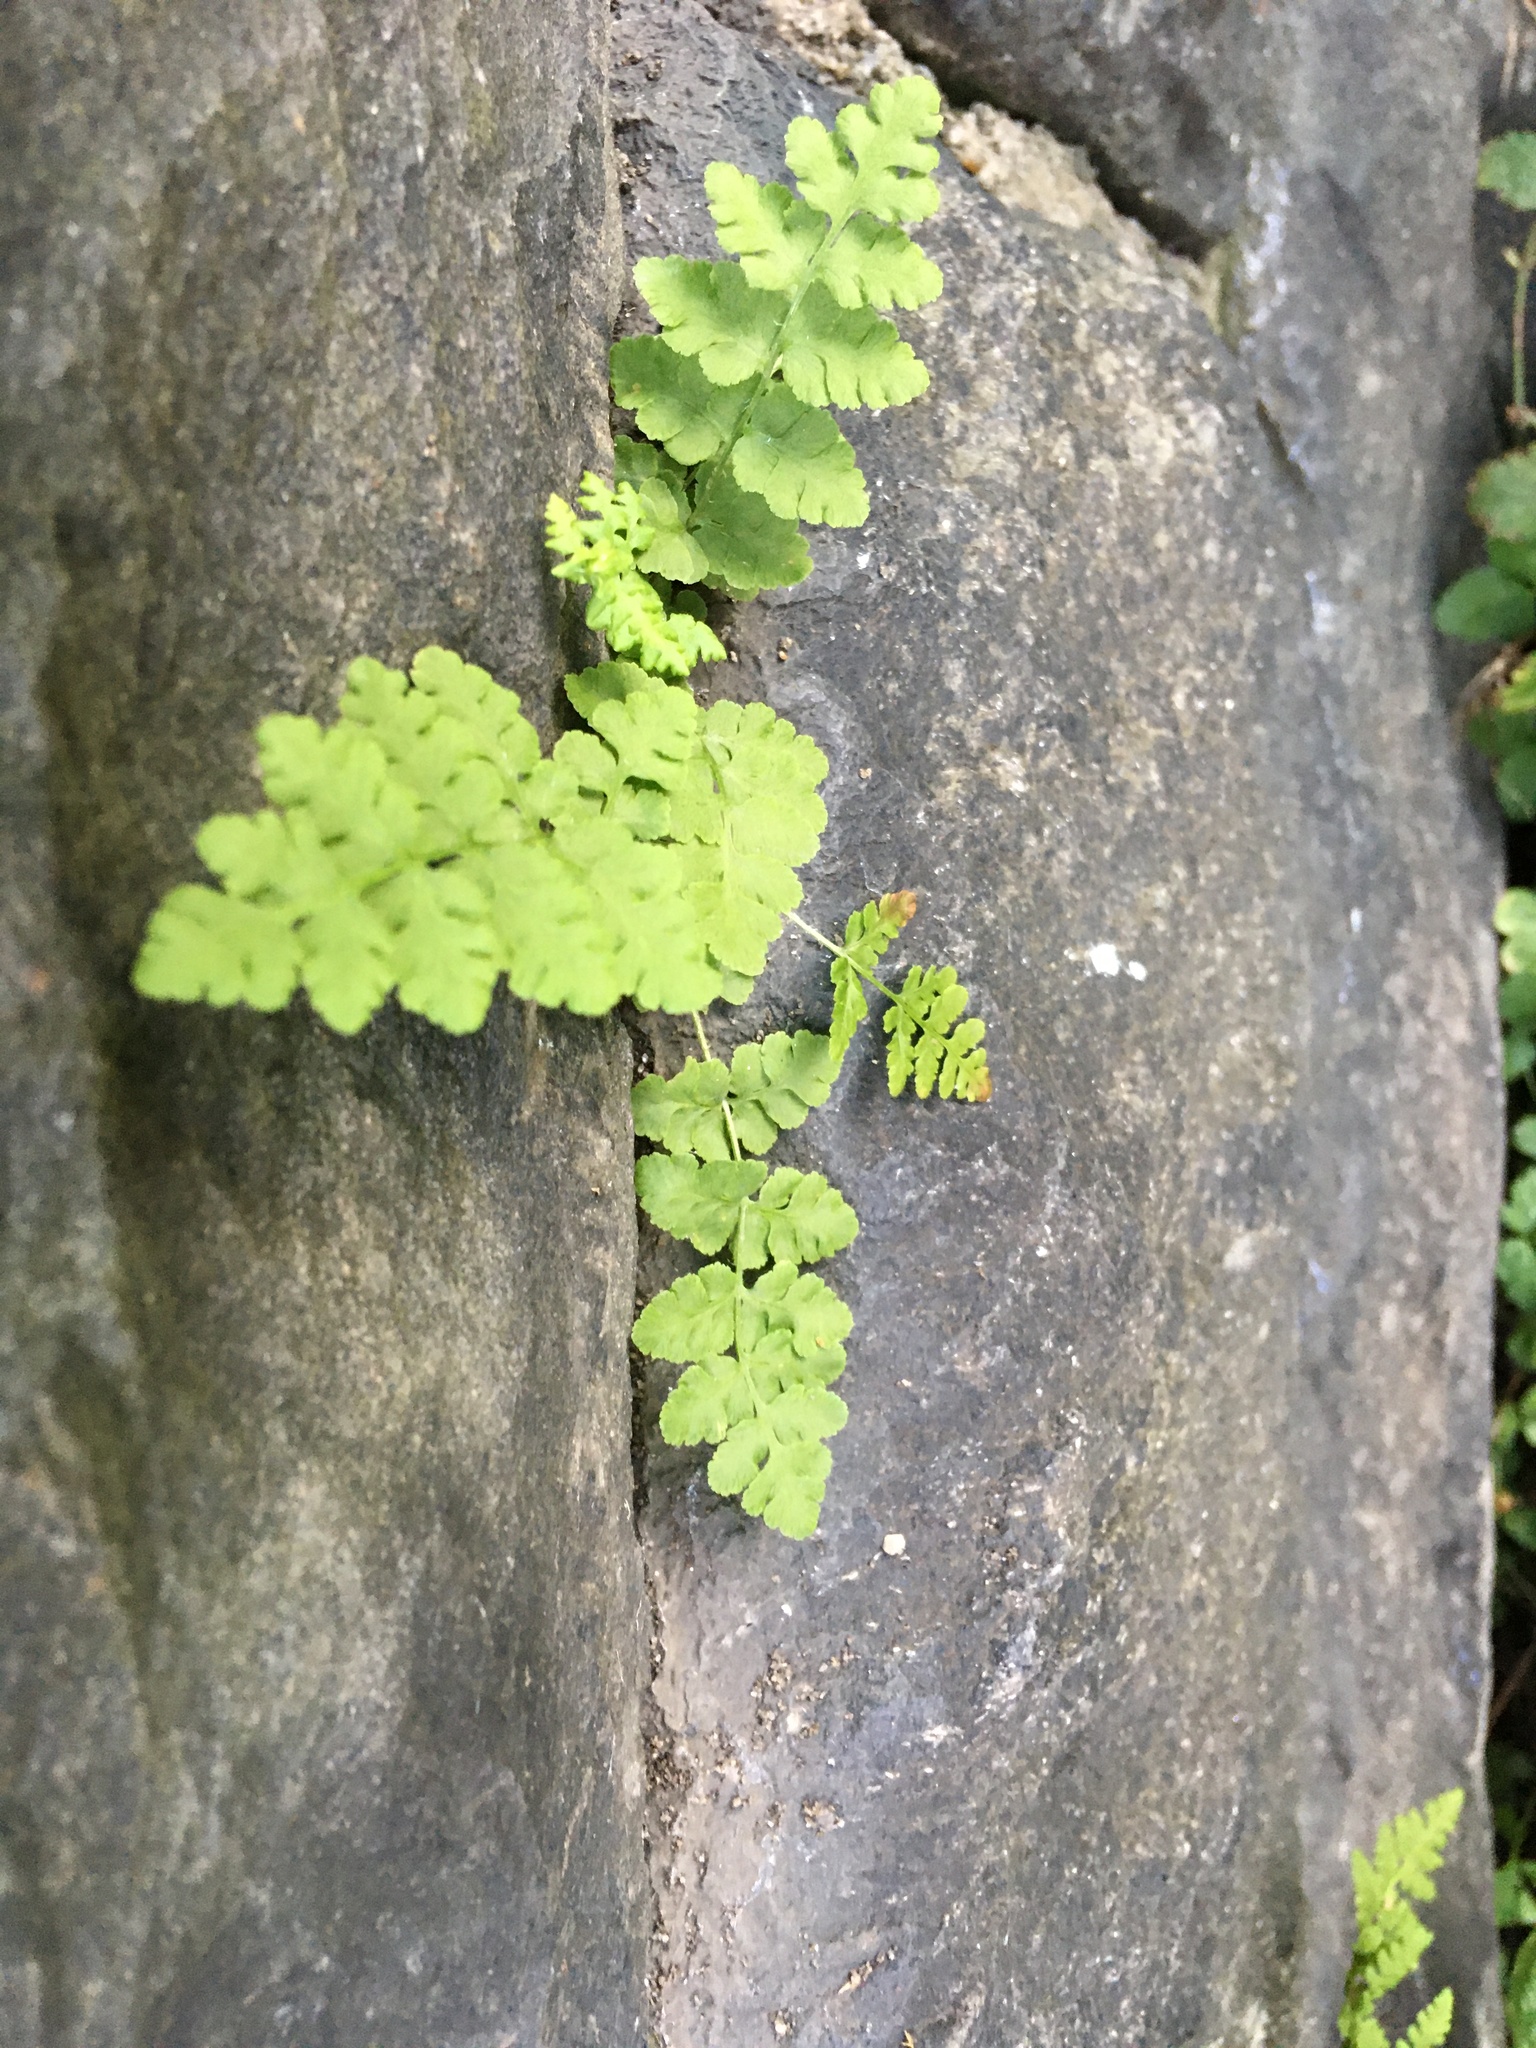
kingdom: Plantae
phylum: Tracheophyta
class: Polypodiopsida
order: Polypodiales
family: Woodsiaceae
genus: Physematium
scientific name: Physematium obtusum
